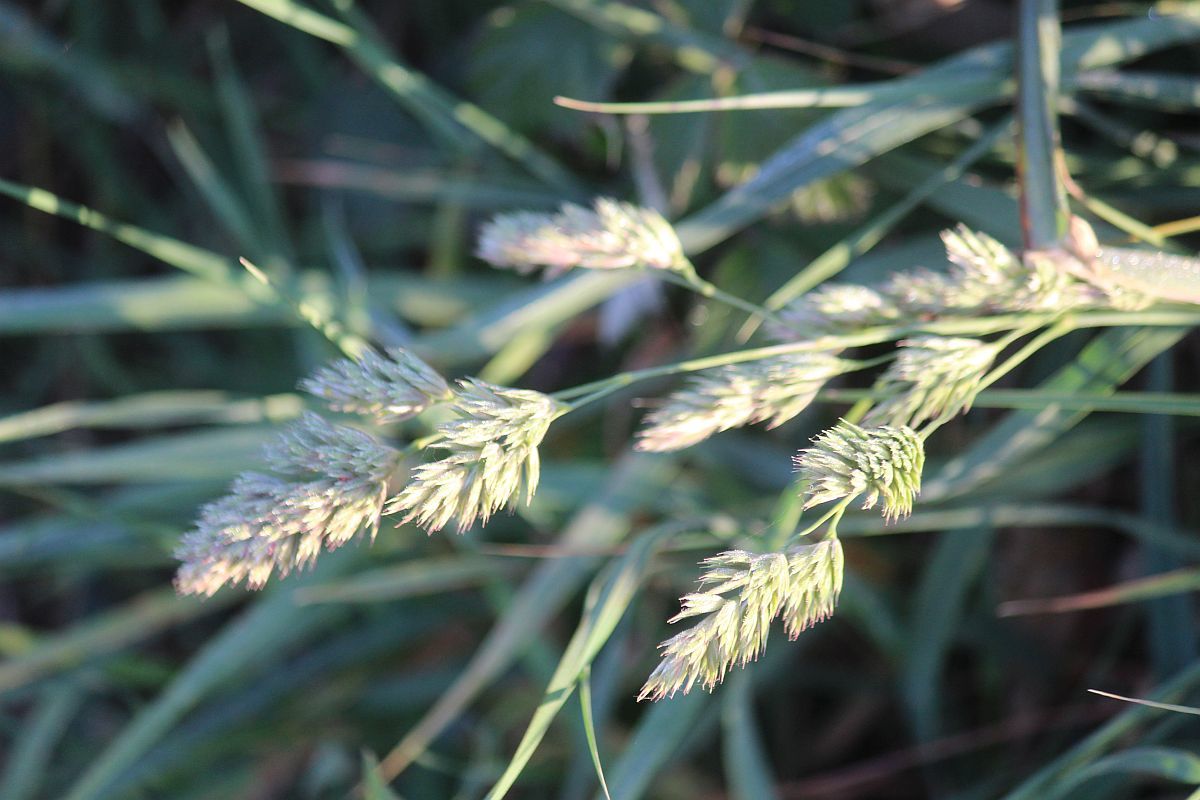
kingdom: Plantae
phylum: Tracheophyta
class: Liliopsida
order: Poales
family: Poaceae
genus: Dactylis
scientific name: Dactylis glomerata
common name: Orchardgrass
